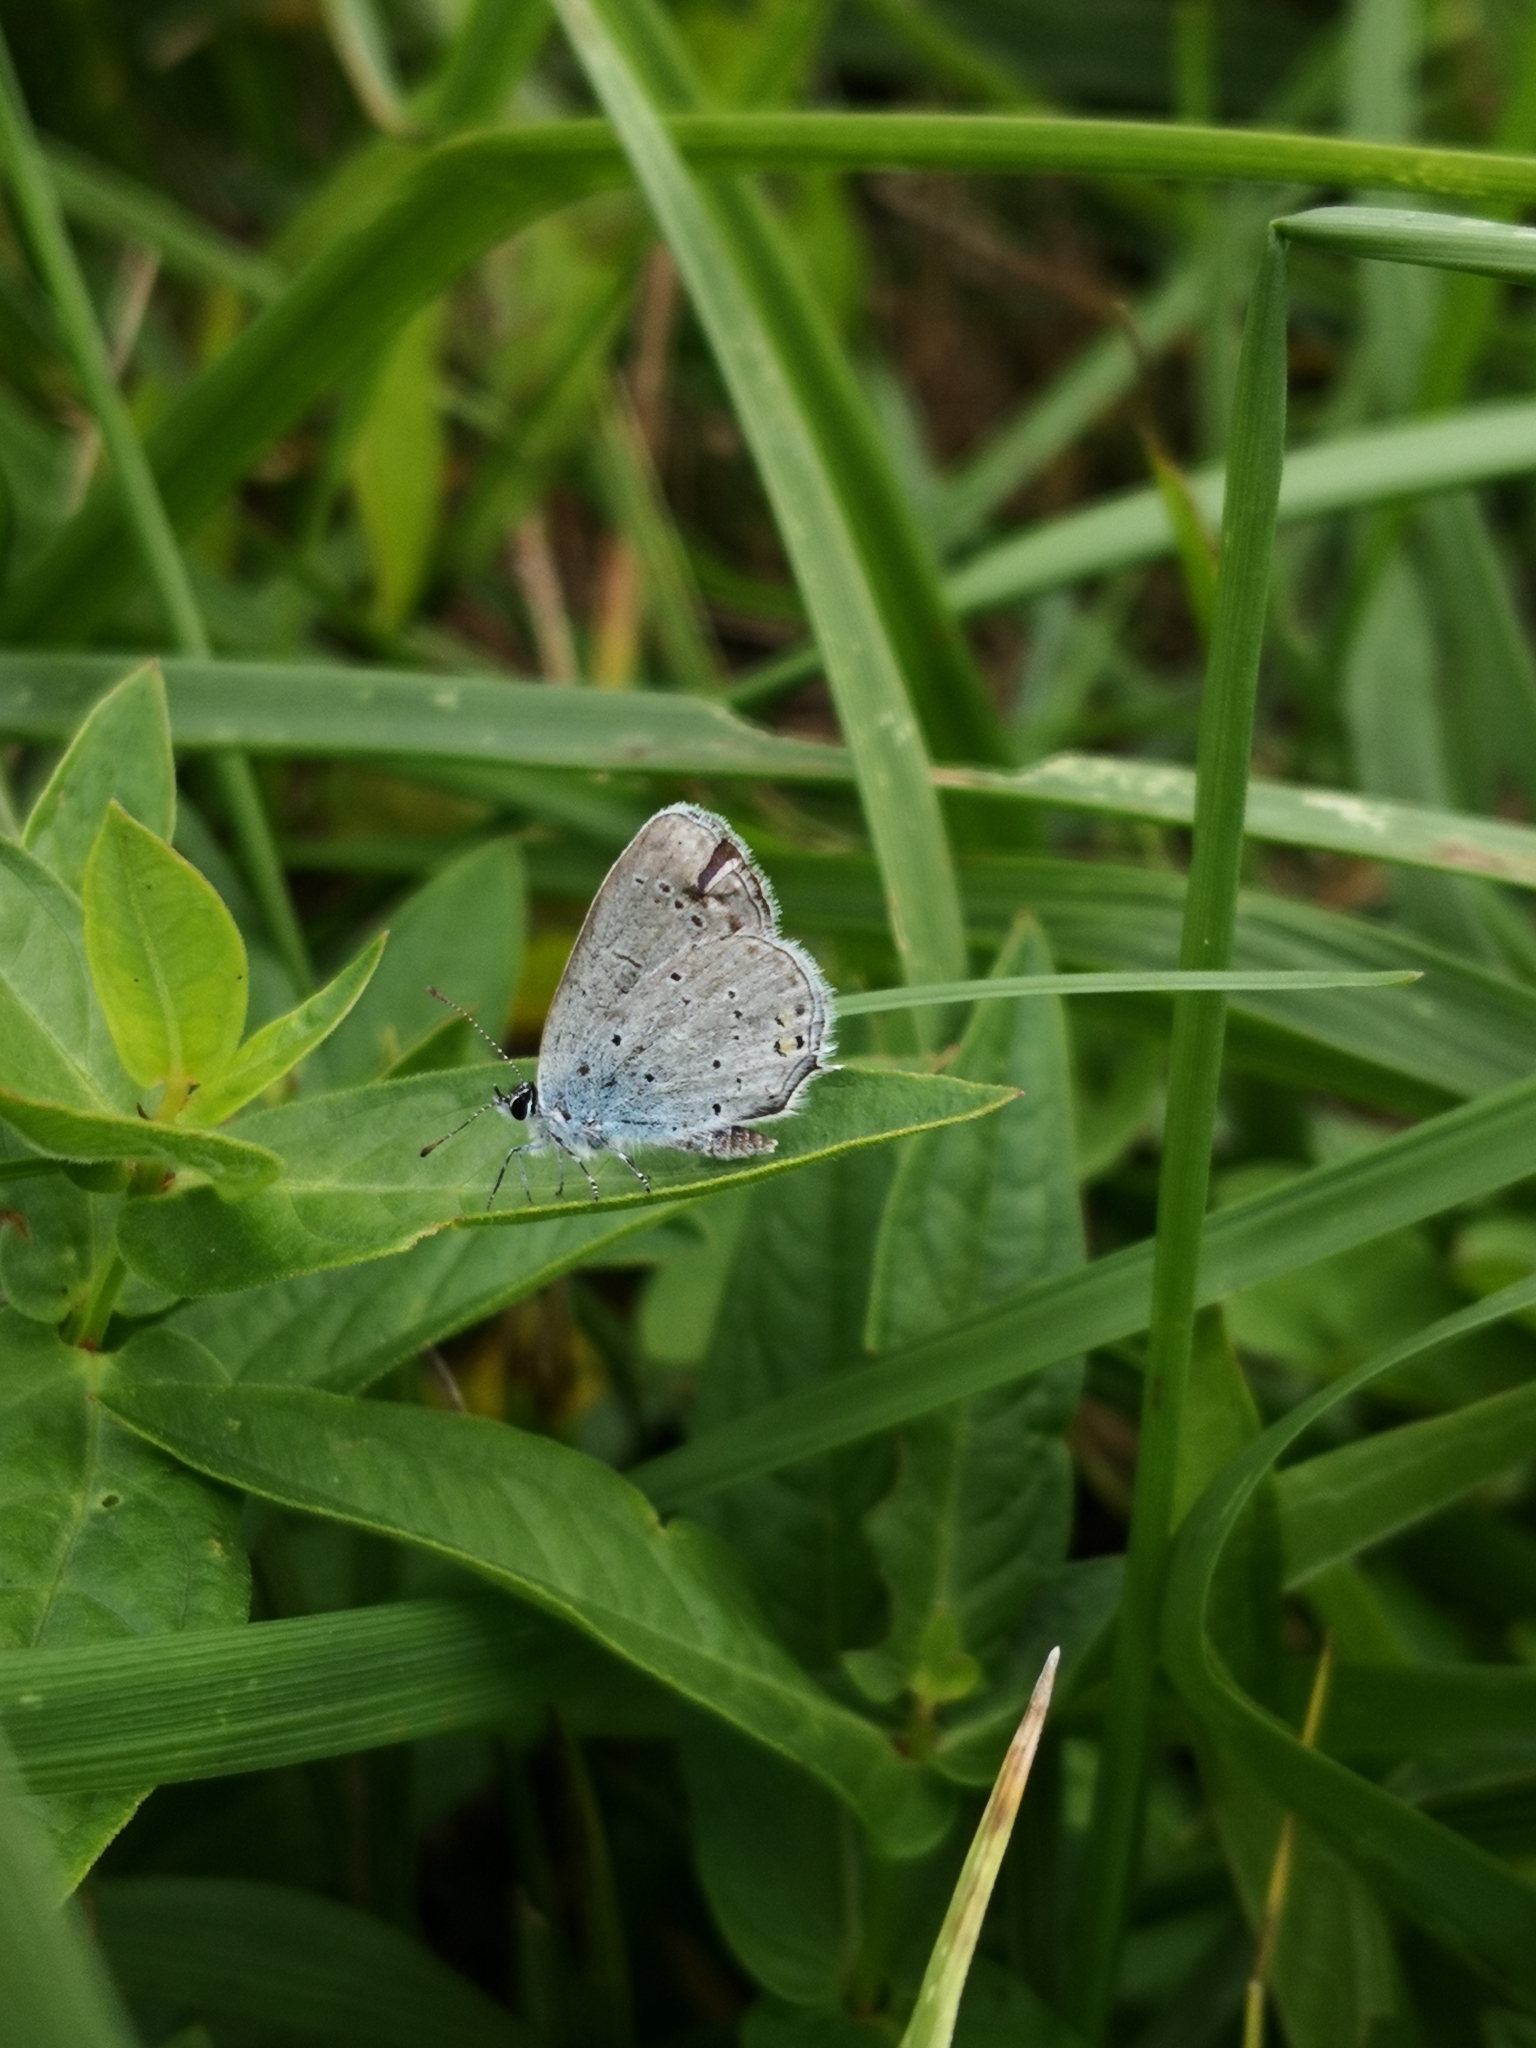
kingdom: Animalia
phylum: Arthropoda
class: Insecta
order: Lepidoptera
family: Lycaenidae
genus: Elkalyce
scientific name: Elkalyce argiades
